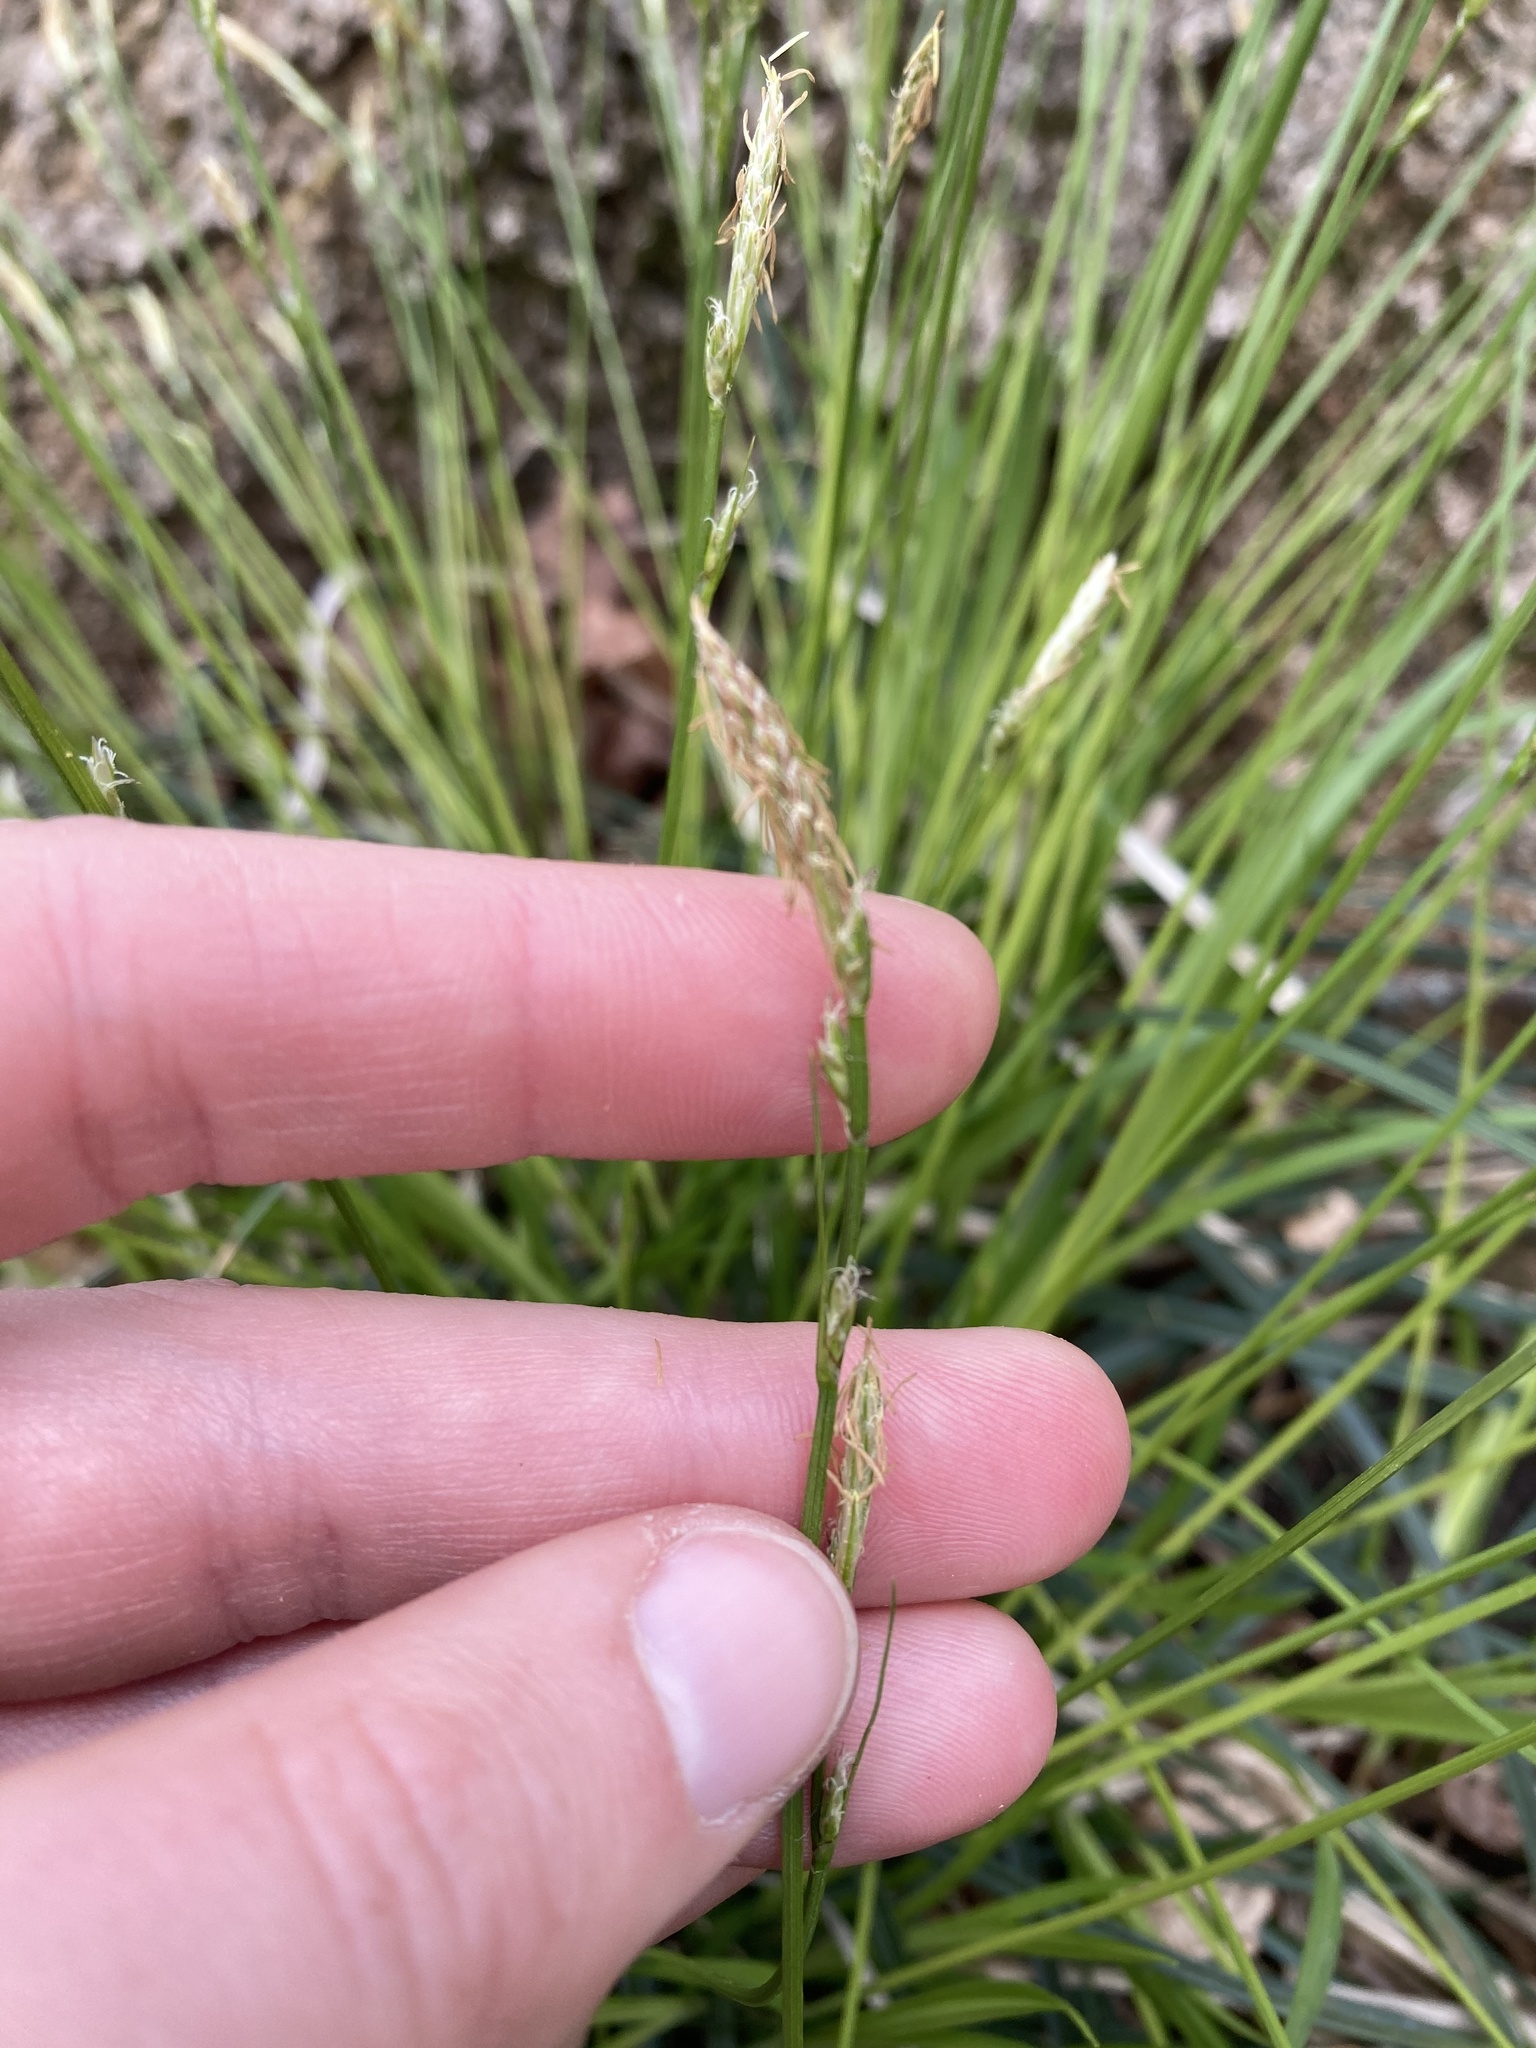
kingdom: Plantae
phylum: Tracheophyta
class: Liliopsida
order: Poales
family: Cyperaceae
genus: Carex
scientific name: Carex communis
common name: Colonial oak sedge
